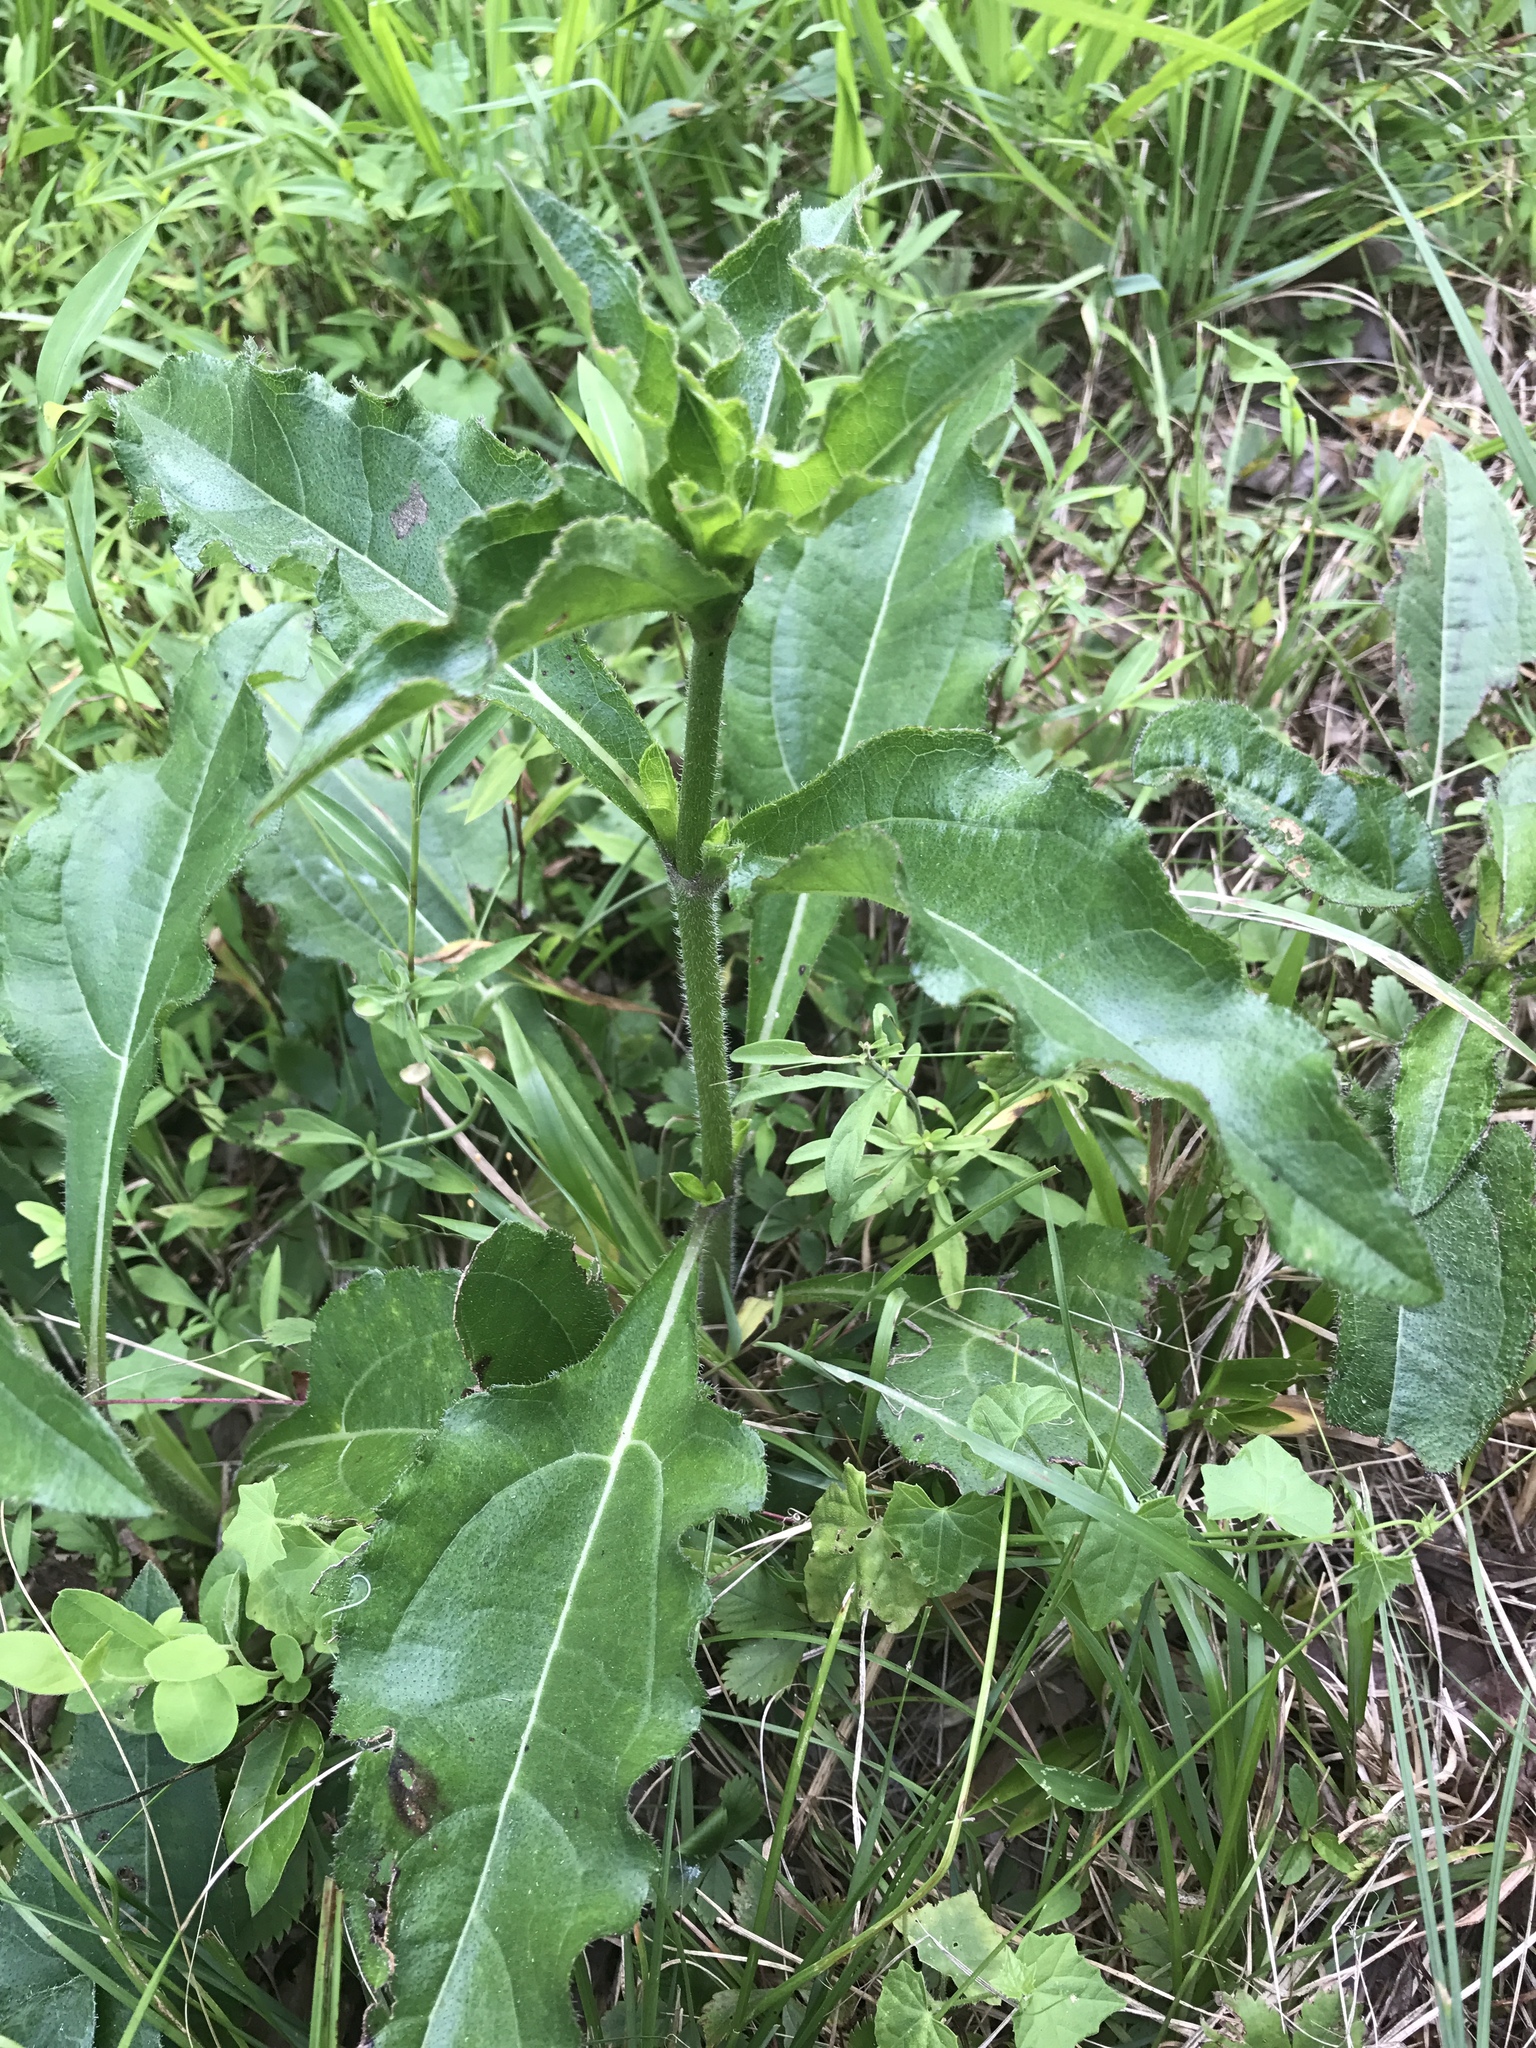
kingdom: Plantae
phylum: Tracheophyta
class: Magnoliopsida
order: Asterales
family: Asteraceae
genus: Helianthus
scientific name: Helianthus atrorubens
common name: Dark-eyed sunflower
